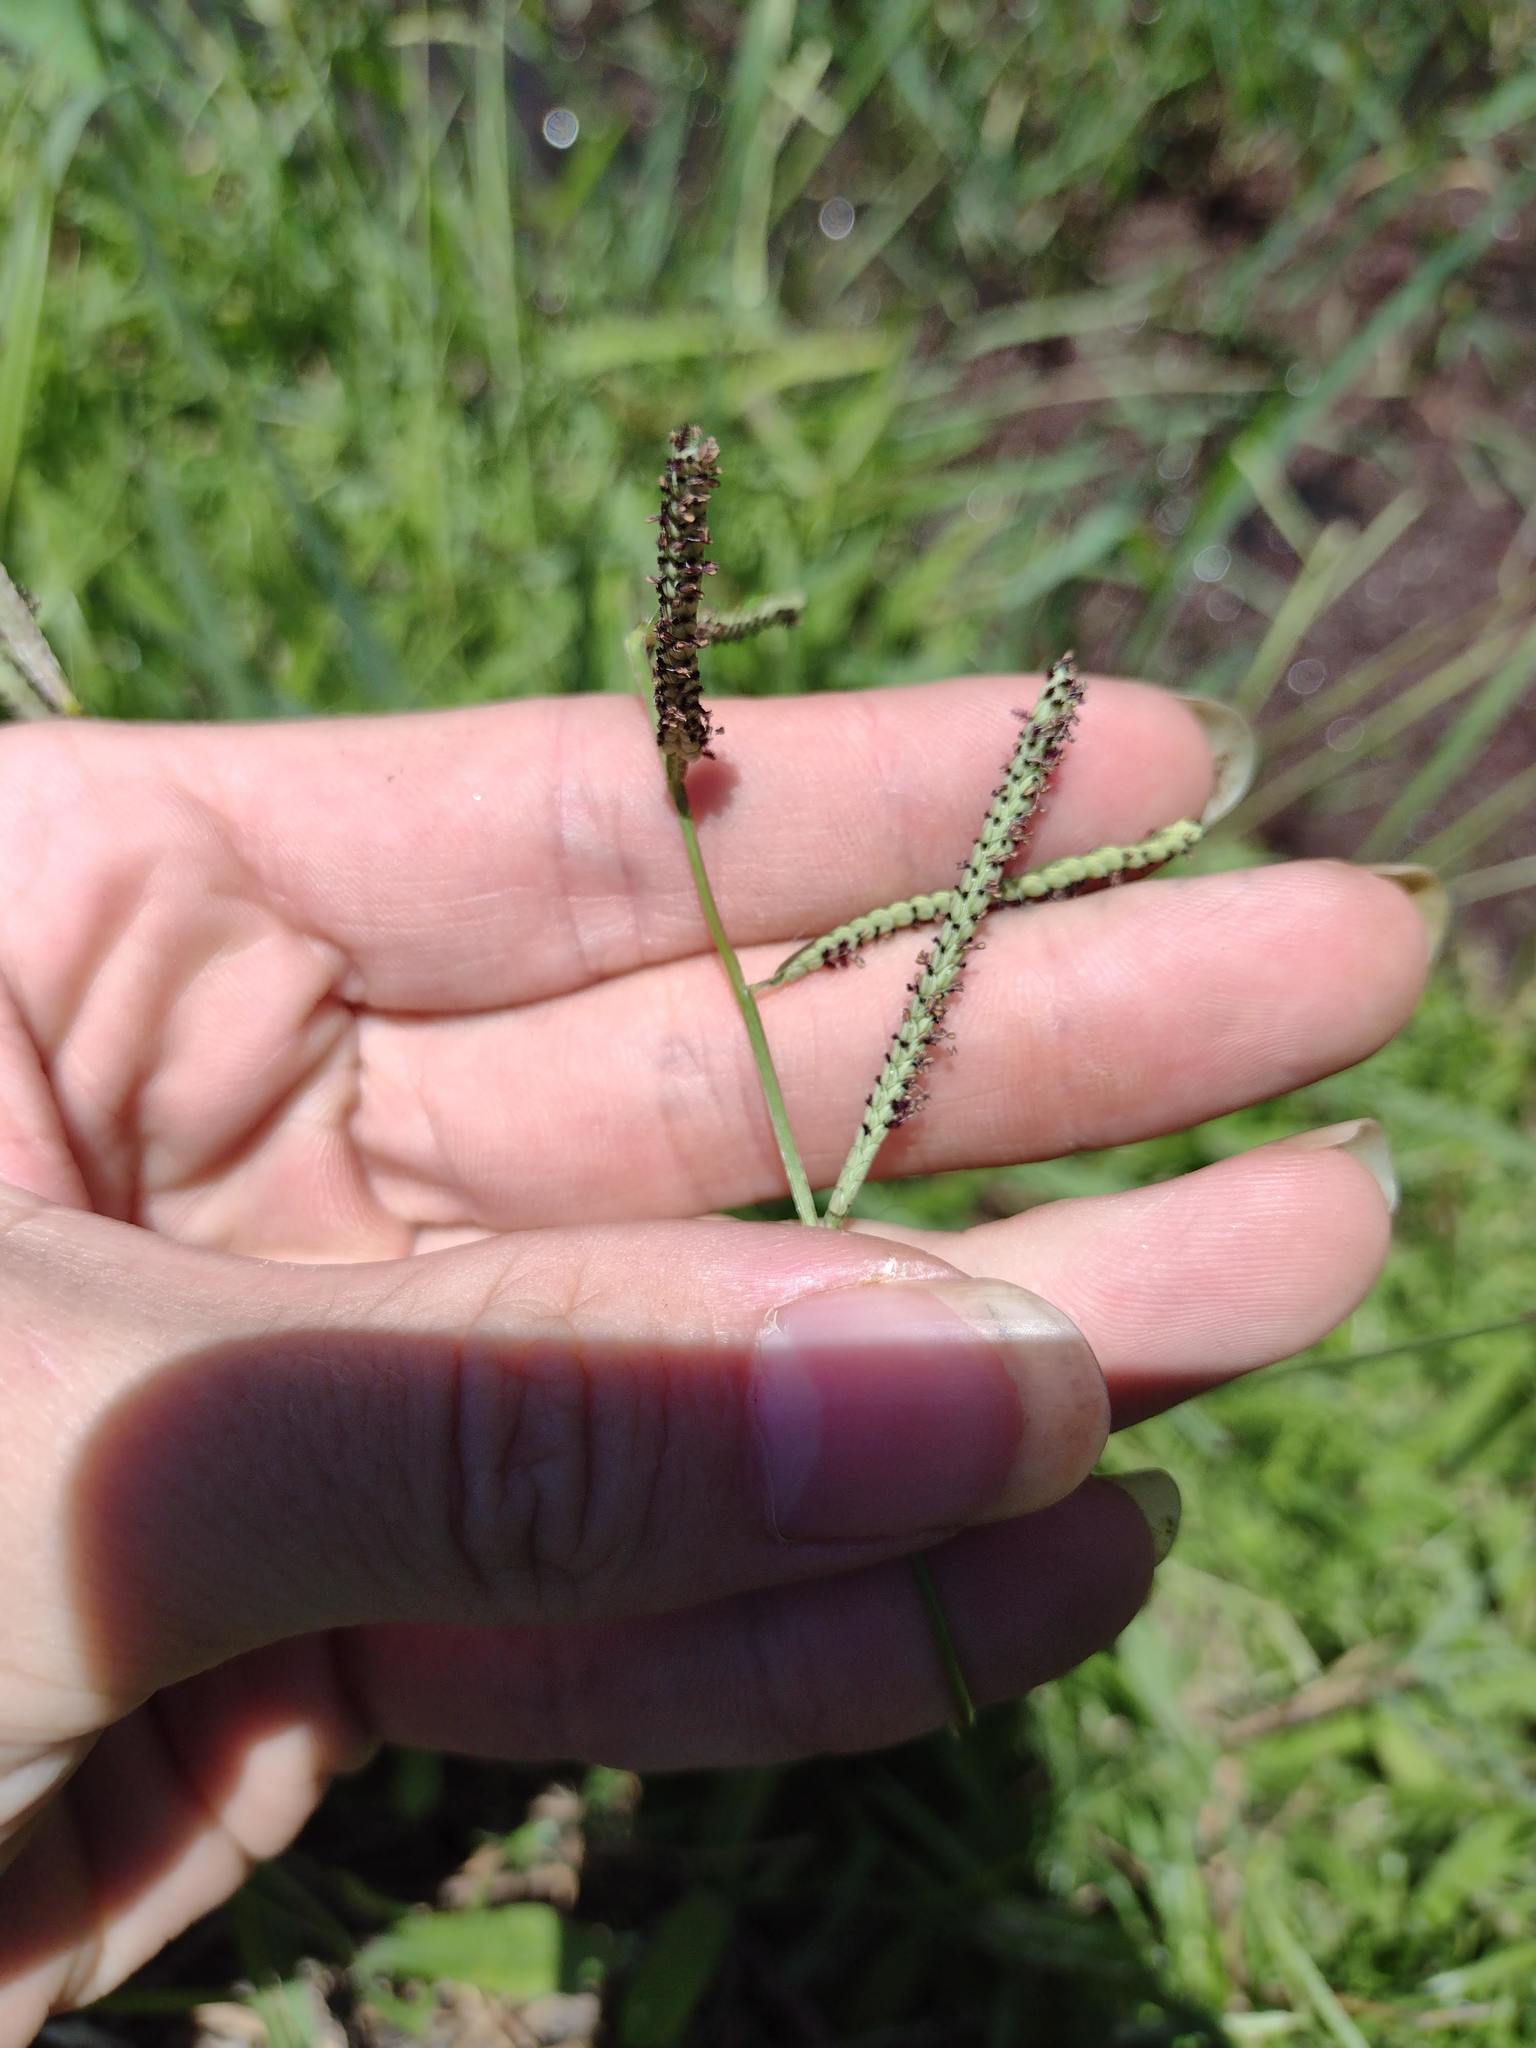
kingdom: Plantae
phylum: Tracheophyta
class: Liliopsida
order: Poales
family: Poaceae
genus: Paspalum
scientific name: Paspalum scrobiculatum
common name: Kodo millet
